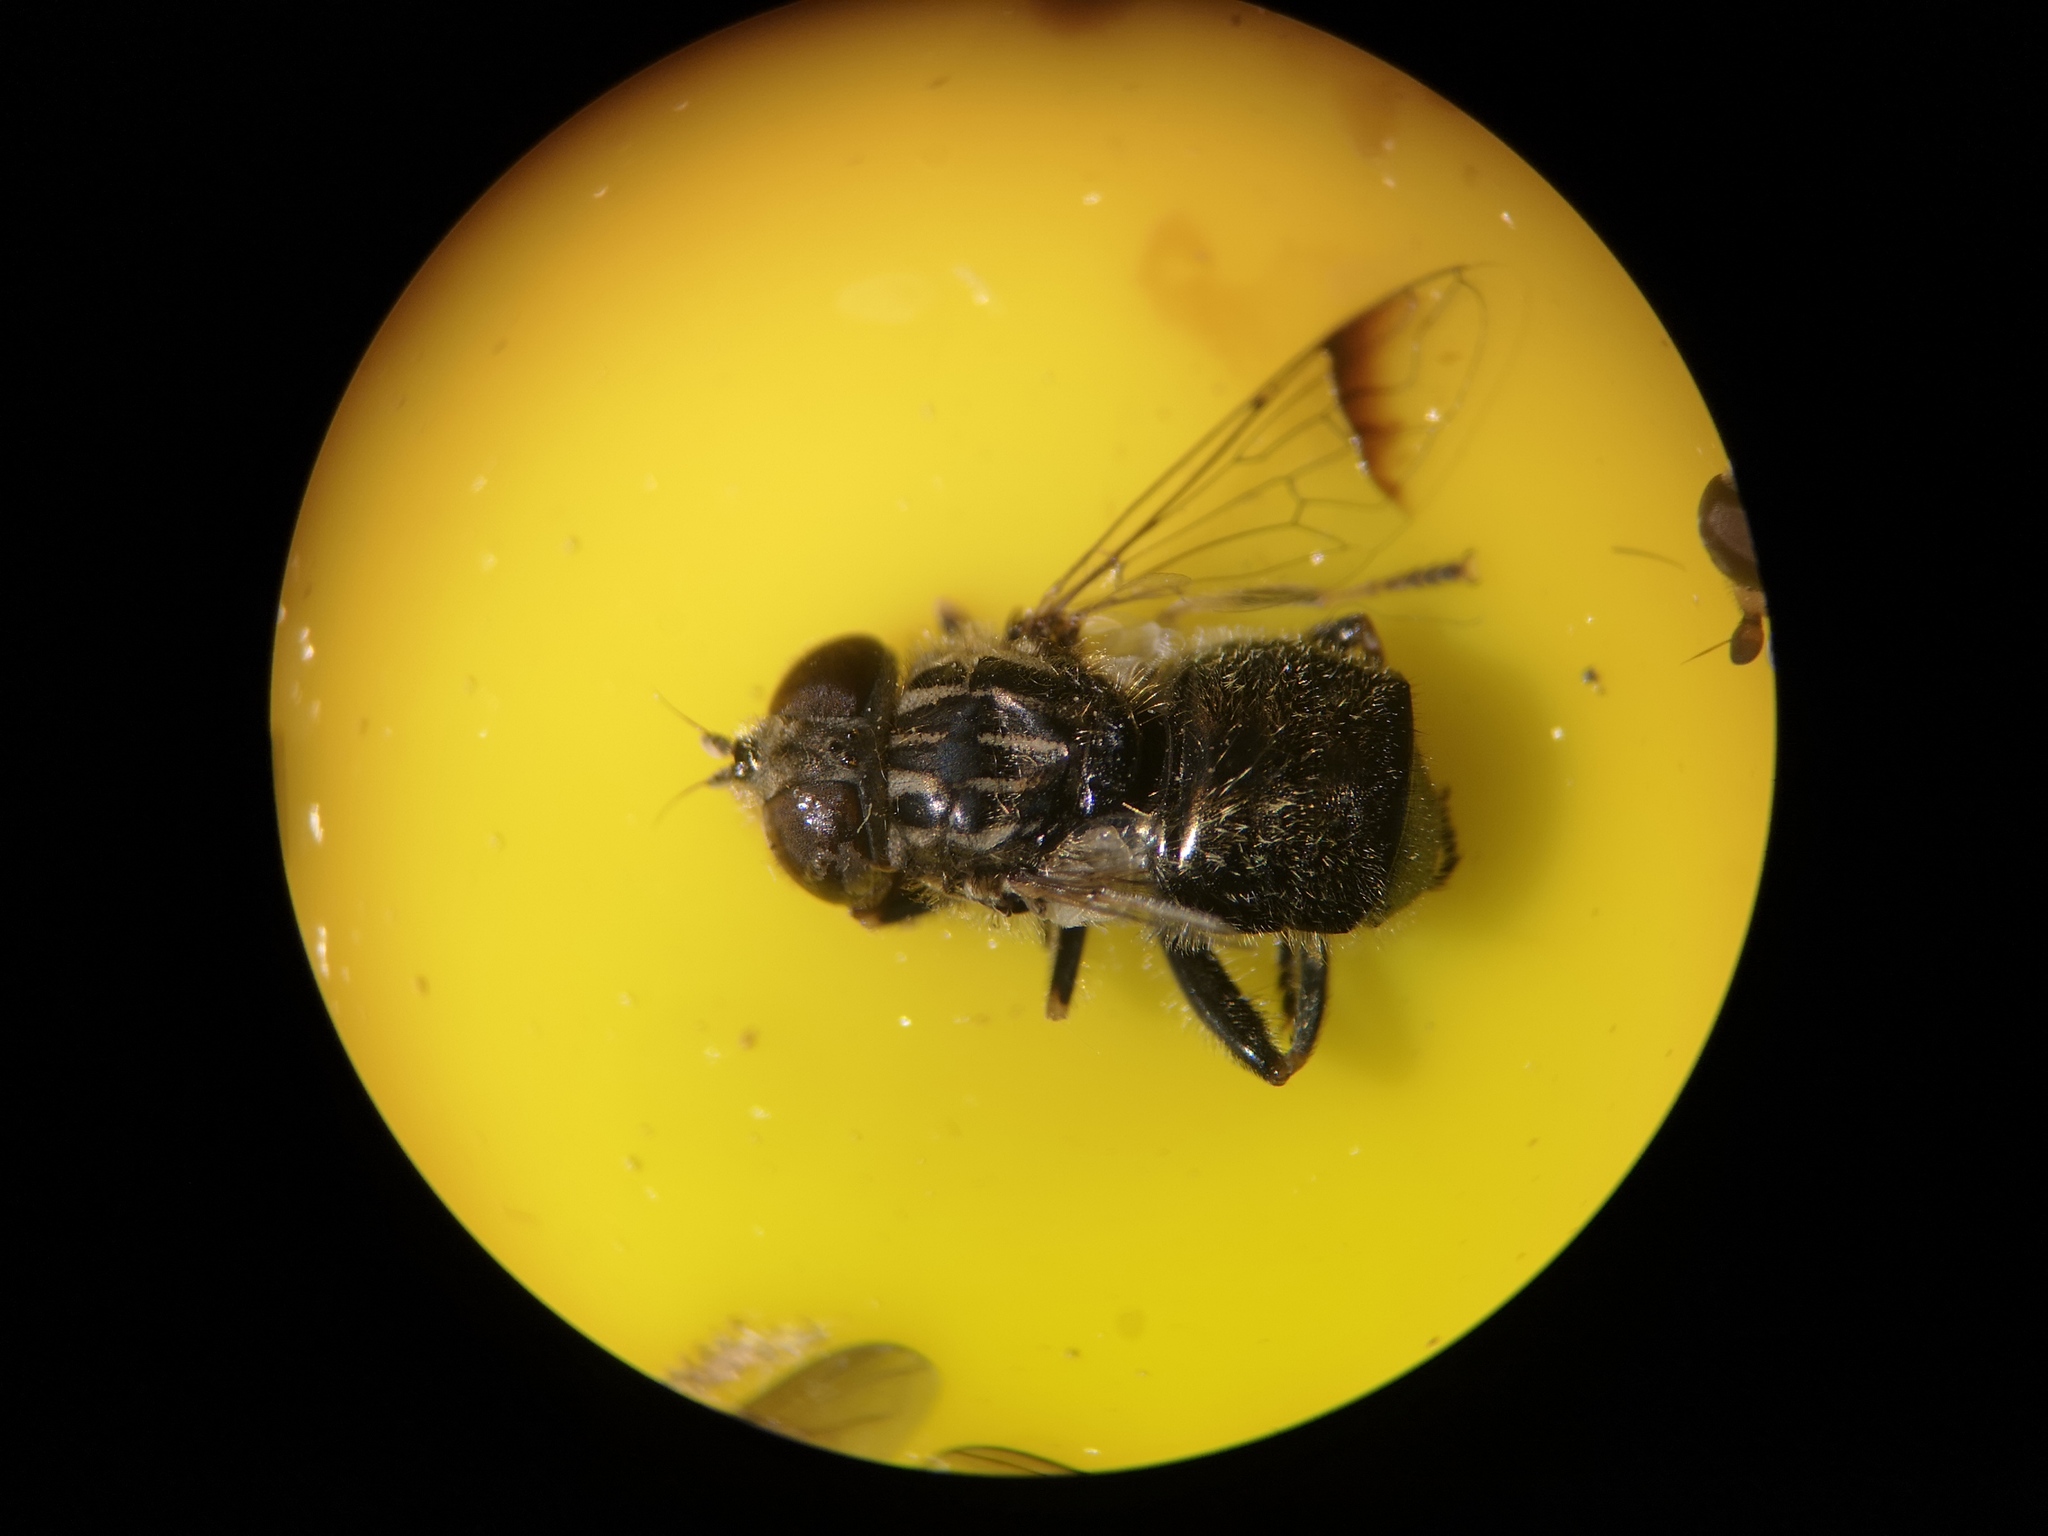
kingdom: Animalia
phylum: Arthropoda
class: Insecta
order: Diptera
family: Syrphidae
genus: Eristalinus
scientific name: Eristalinus sepulchralis
